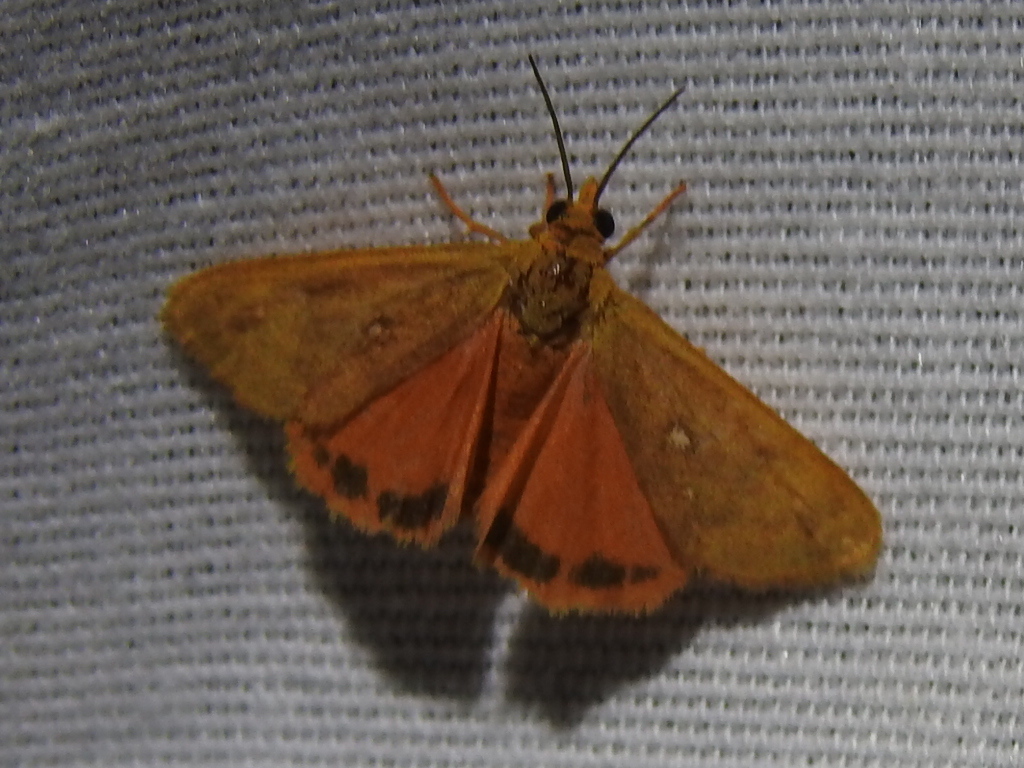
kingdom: Animalia
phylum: Arthropoda
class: Insecta
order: Lepidoptera
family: Erebidae
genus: Virbia
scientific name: Virbia aurantiaca
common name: Orange virbia moth
